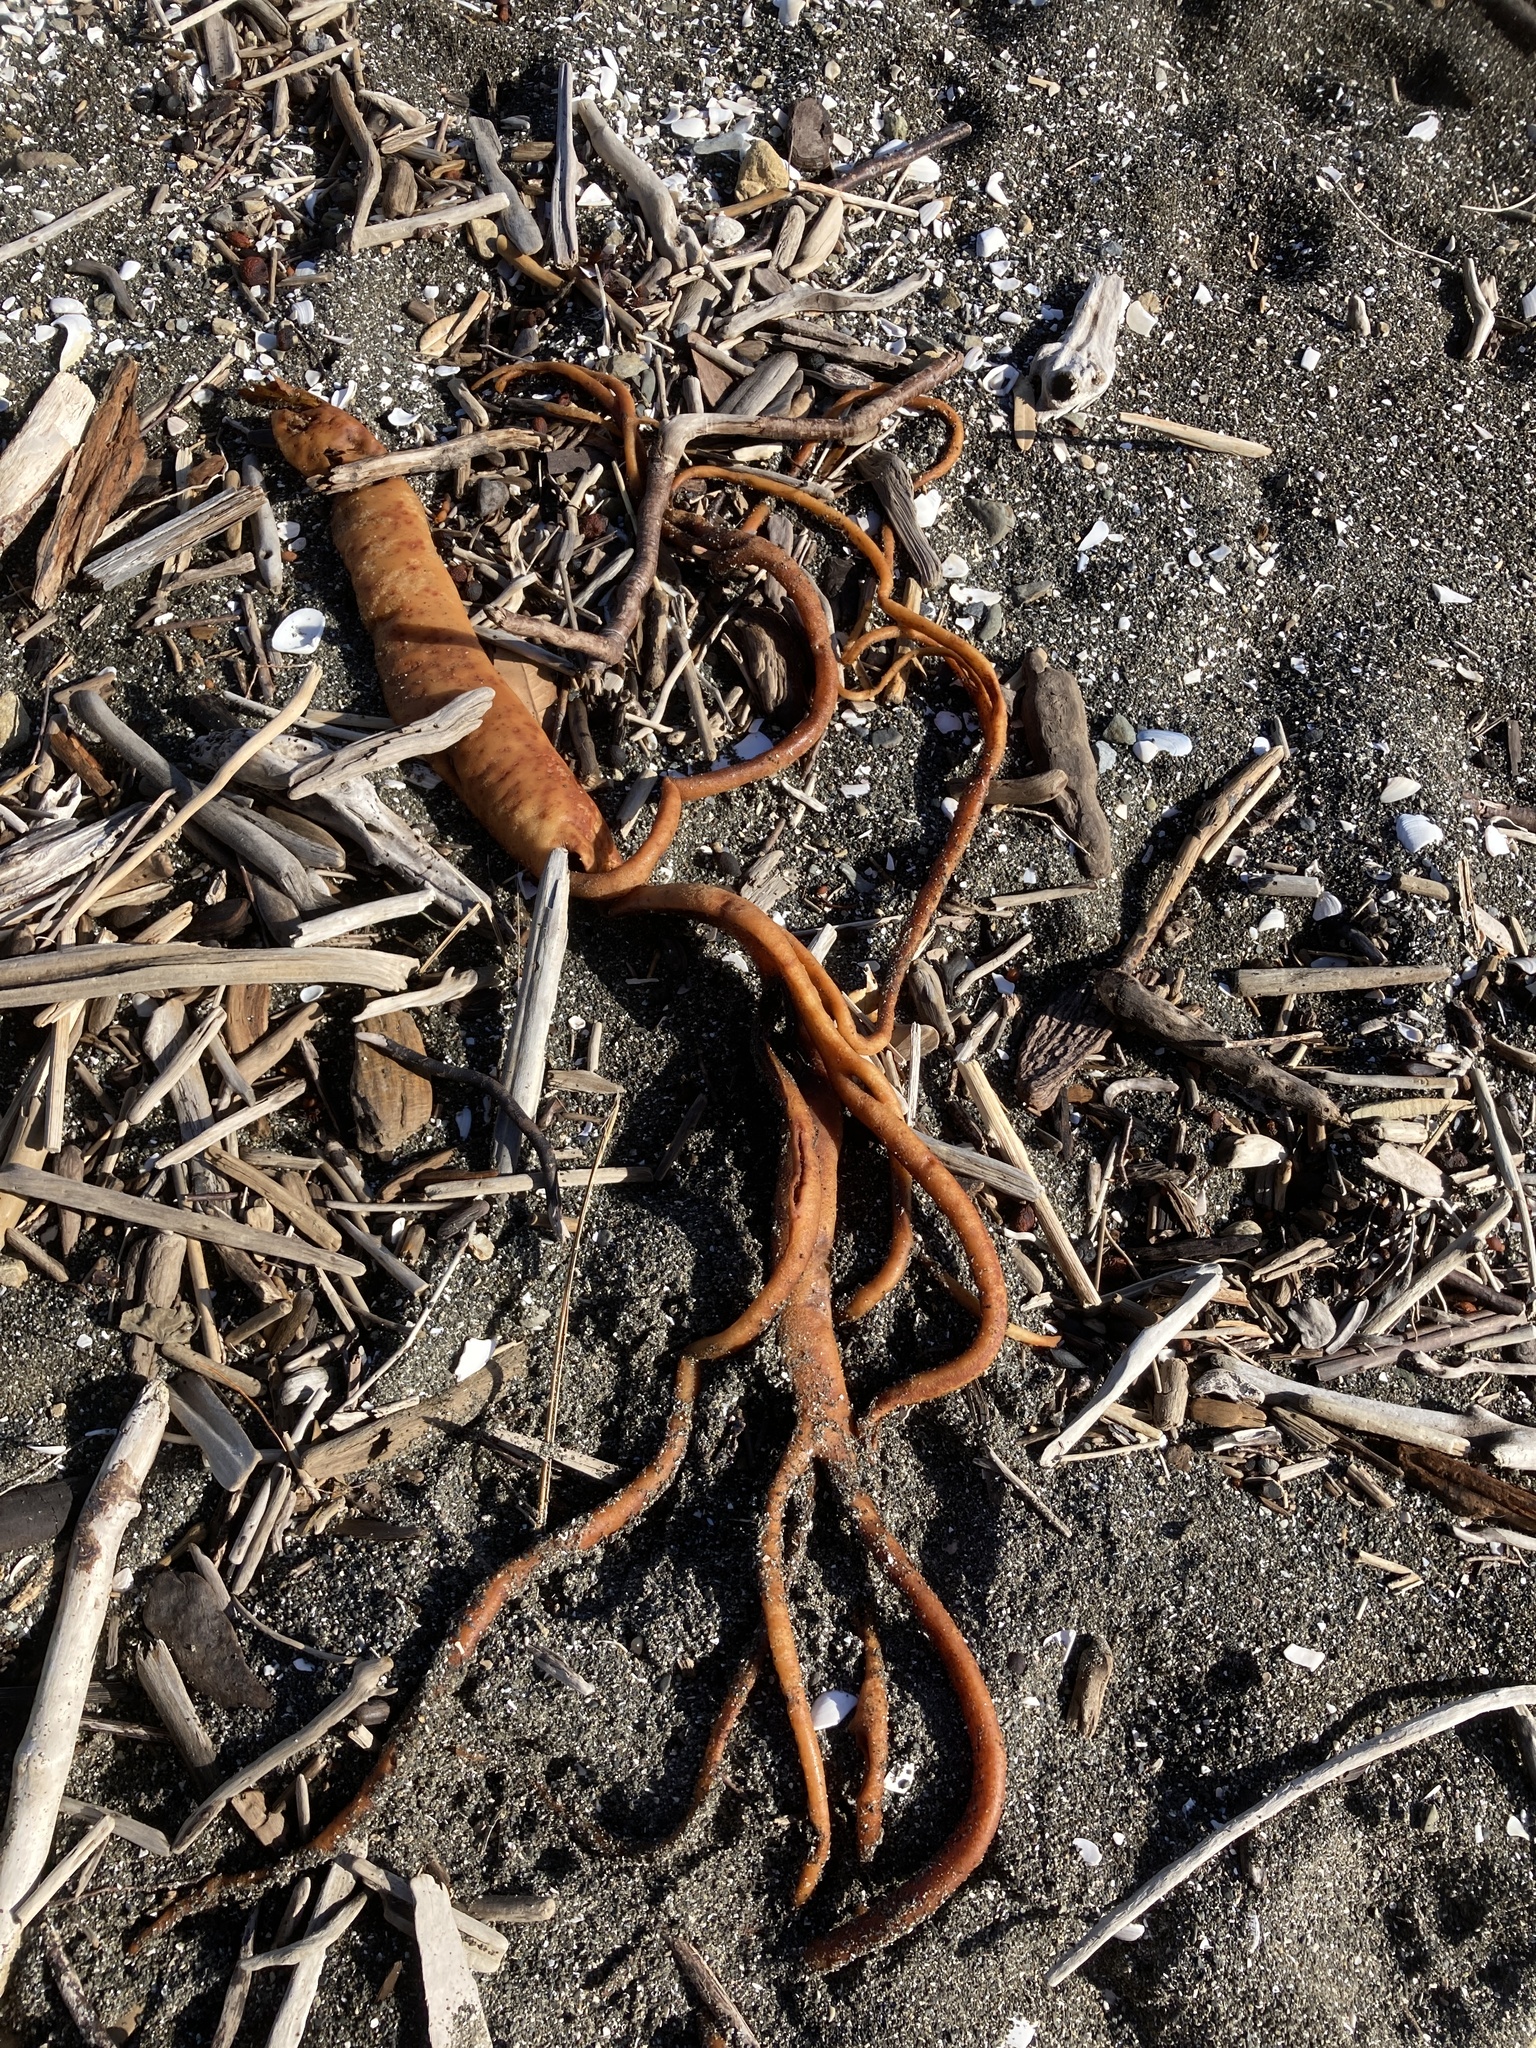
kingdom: Chromista
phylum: Ochrophyta
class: Phaeophyceae
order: Fucales
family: Durvillaeaceae
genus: Durvillaea
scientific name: Durvillaea antarctica
